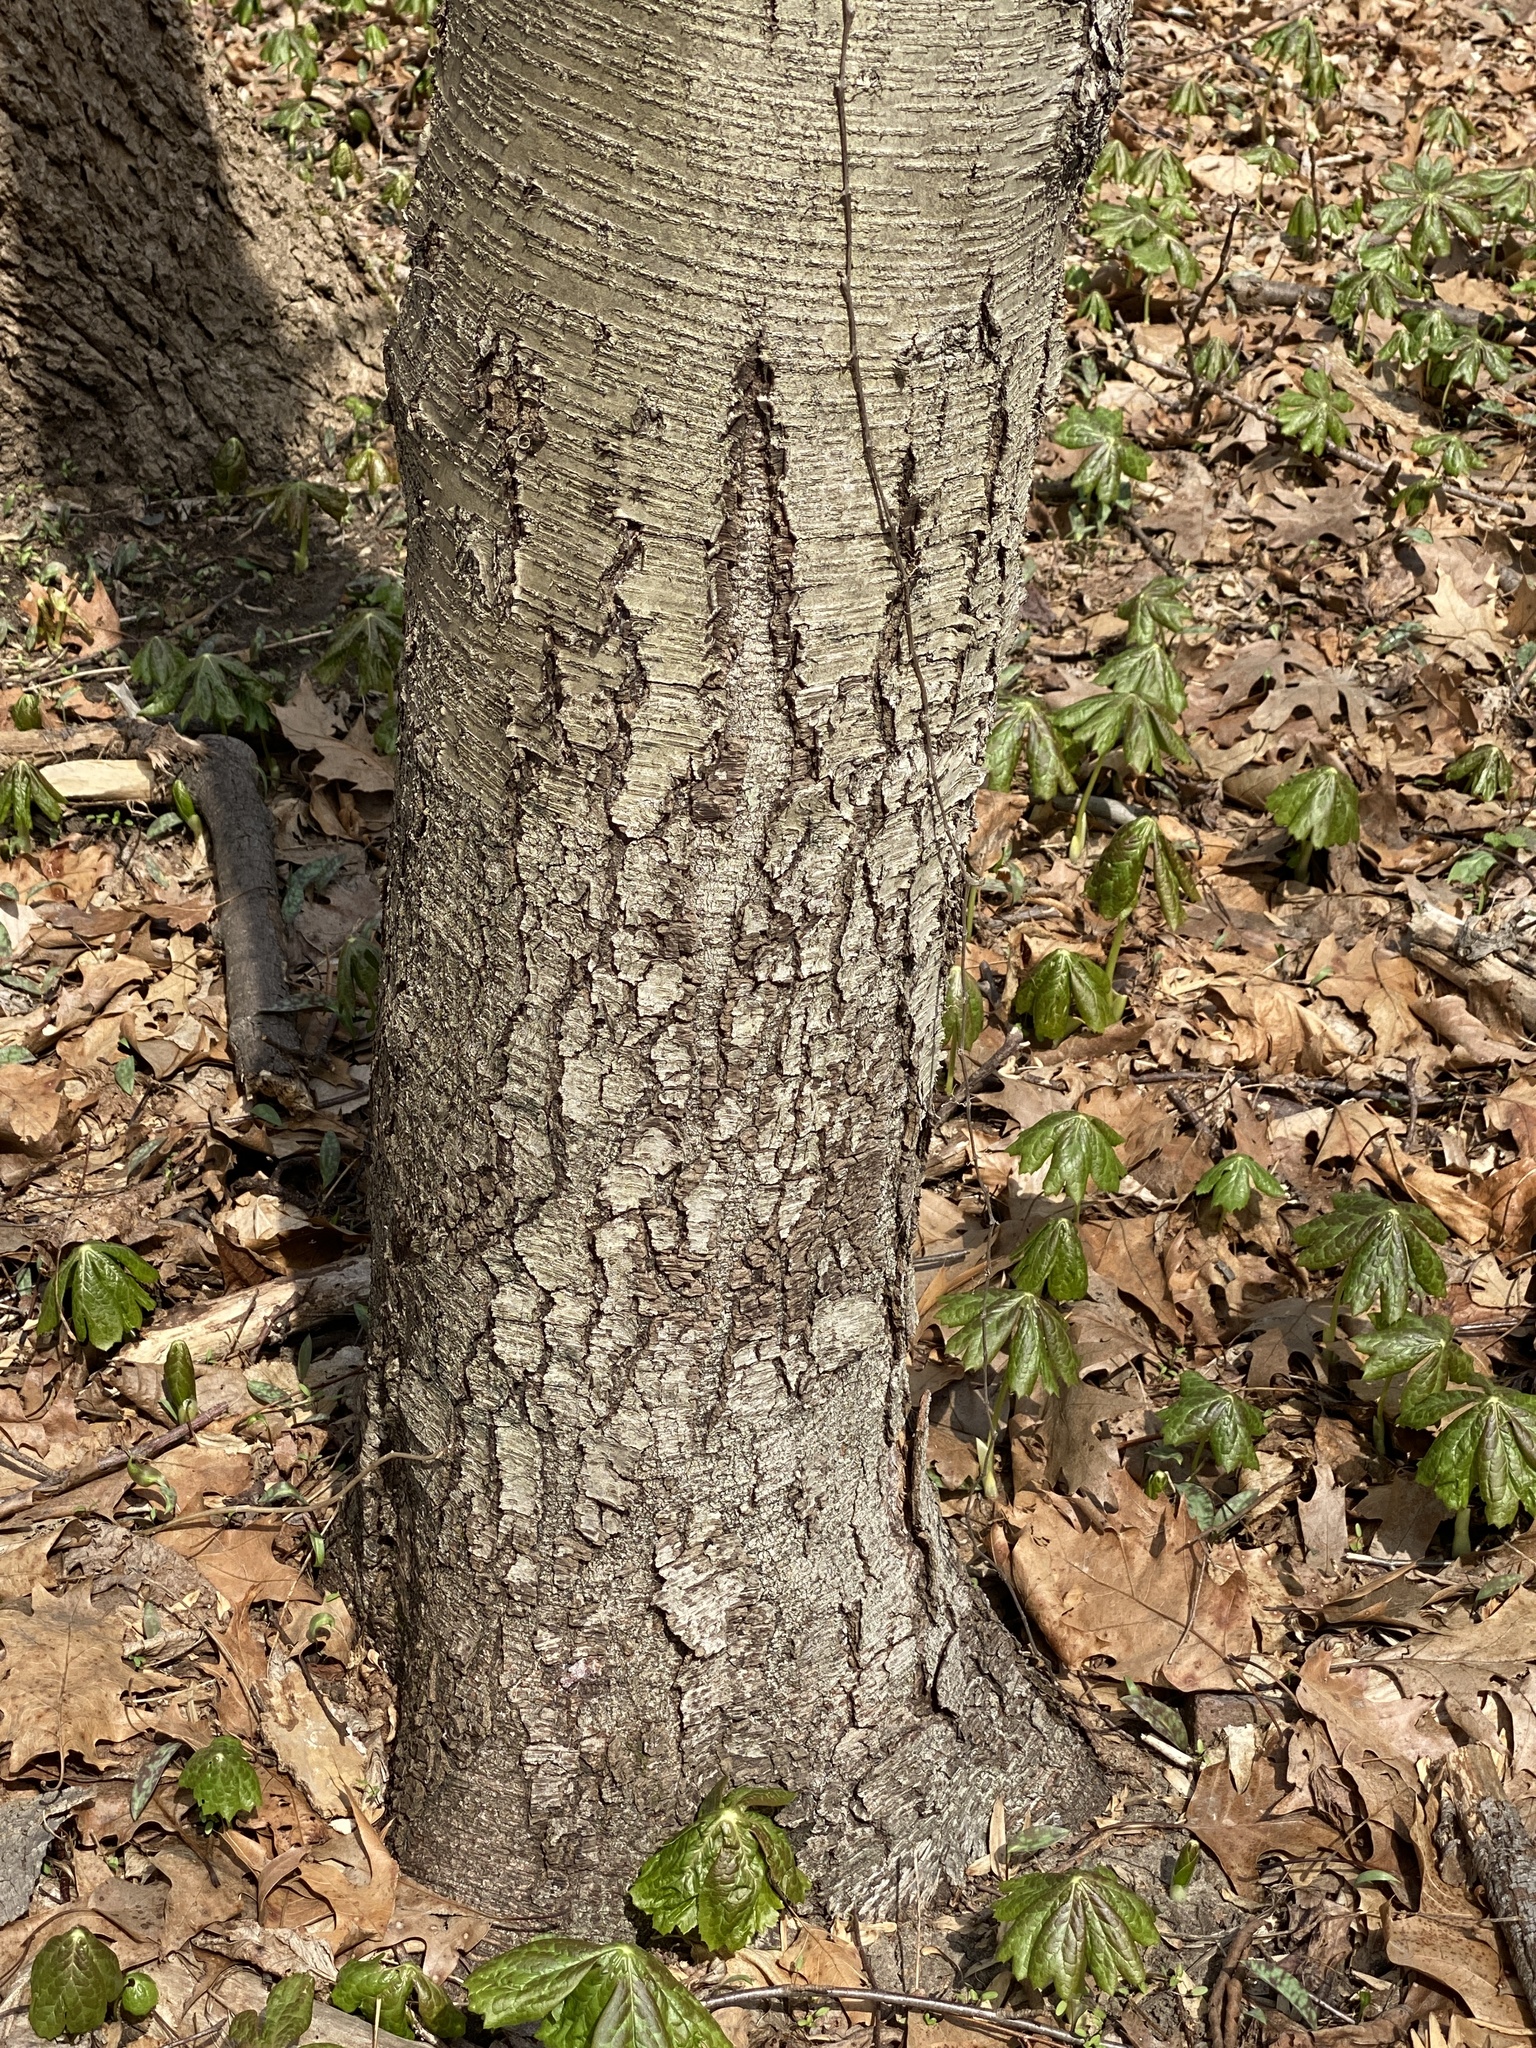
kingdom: Plantae
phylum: Tracheophyta
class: Magnoliopsida
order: Fagales
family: Betulaceae
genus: Betula
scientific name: Betula lenta
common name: Black birch
